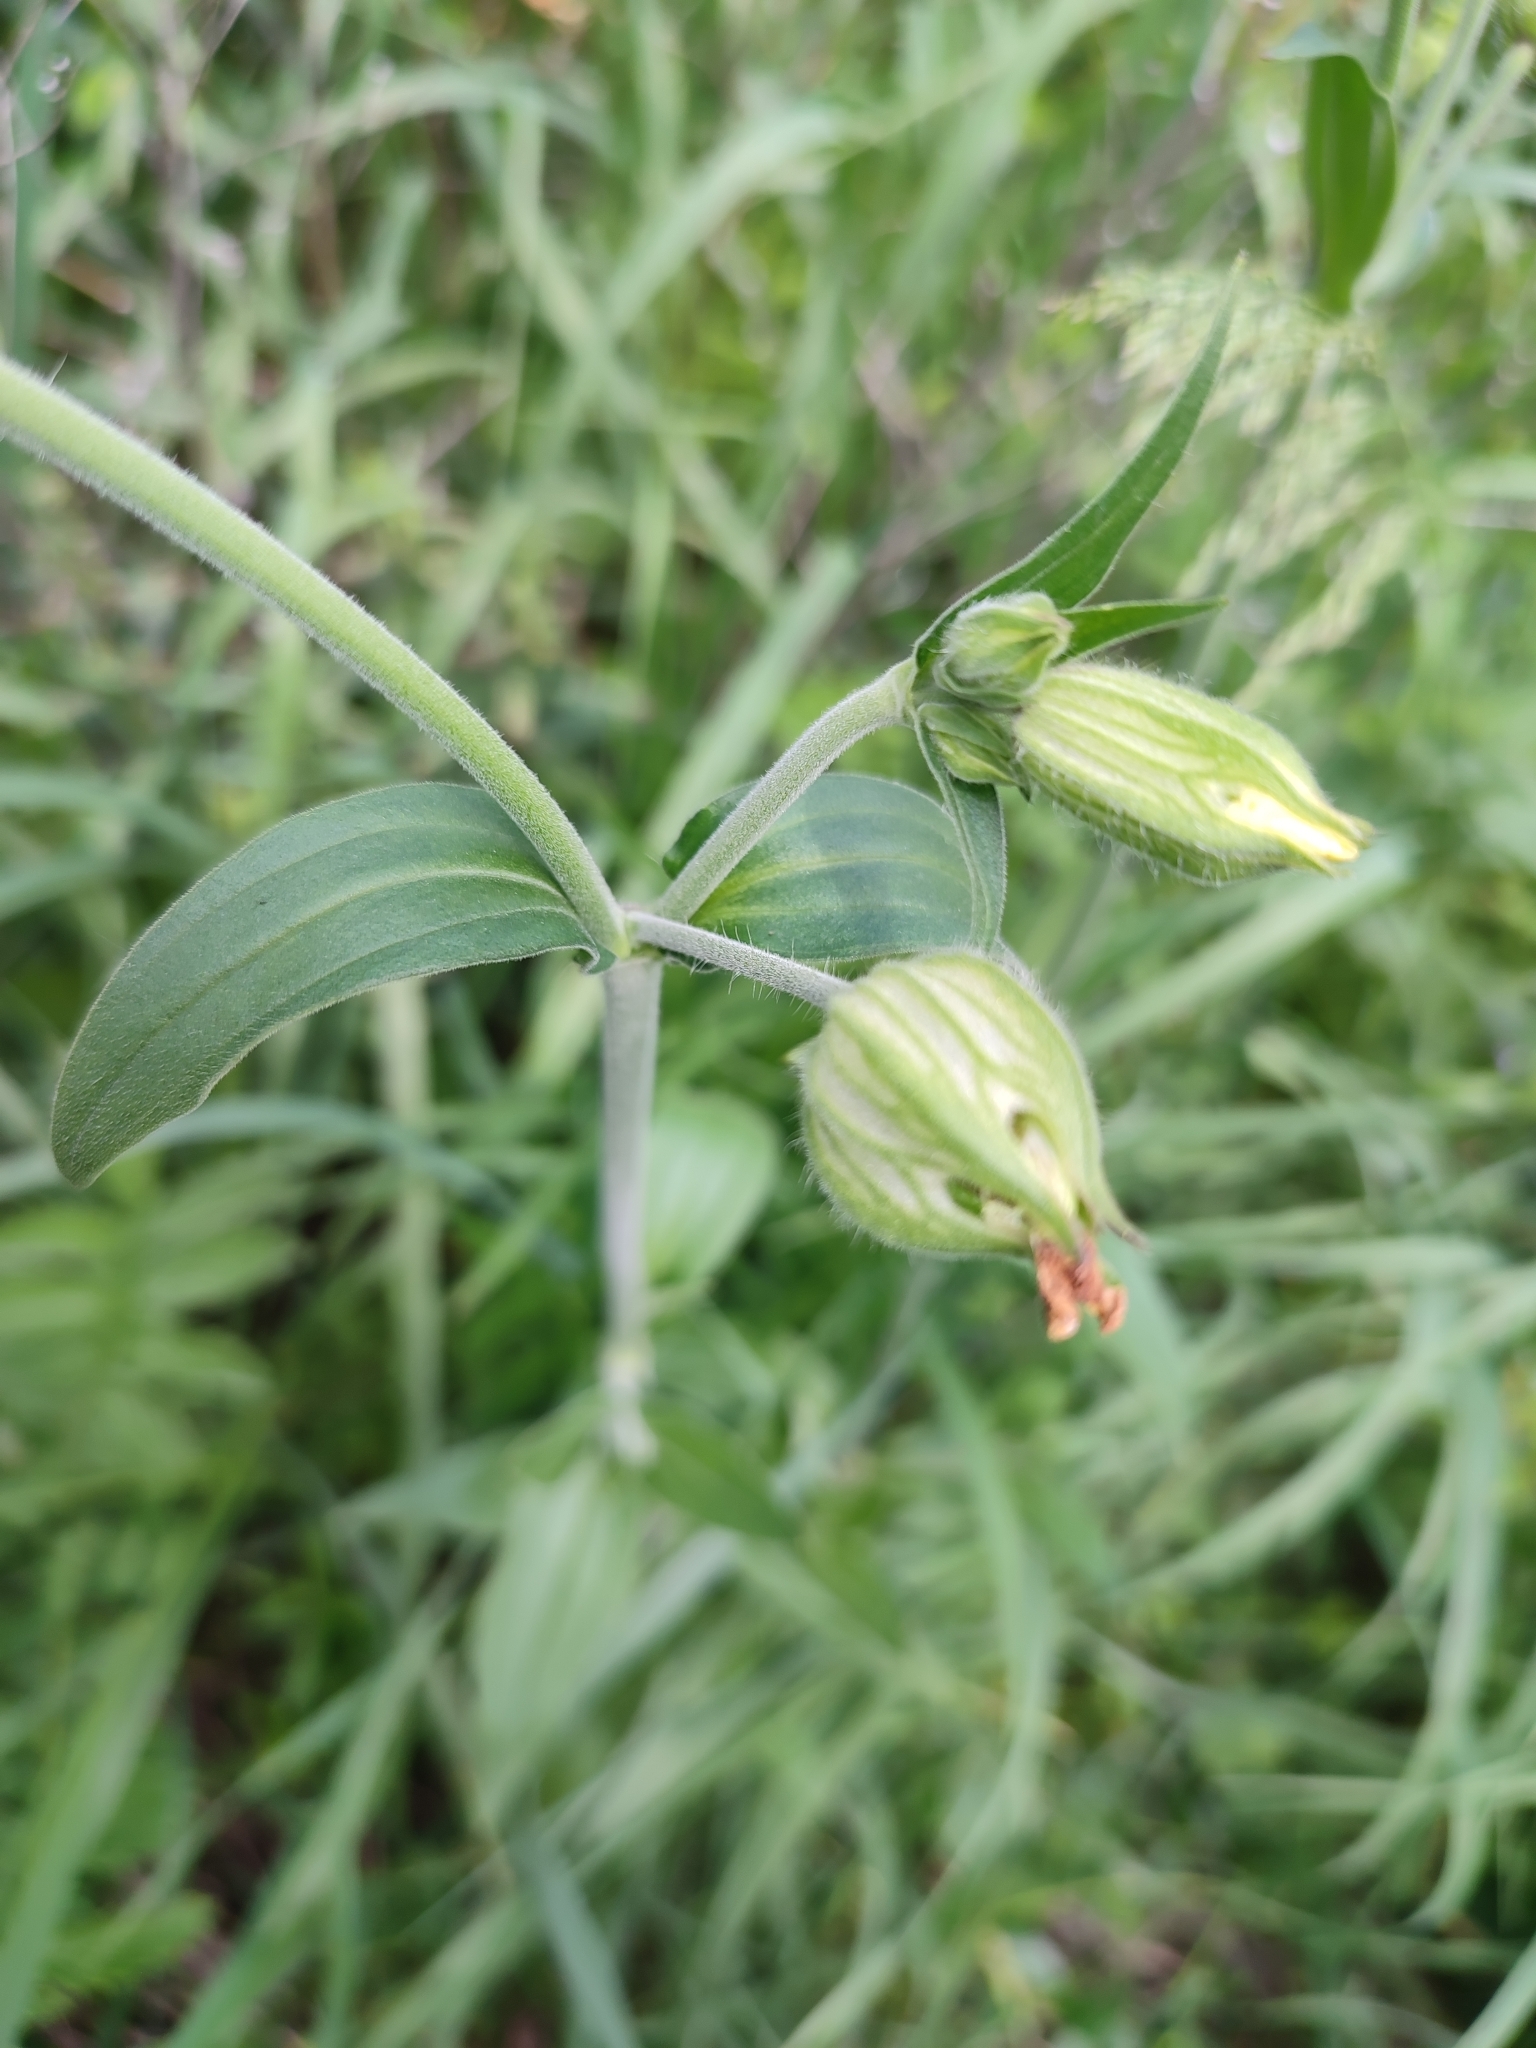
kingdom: Plantae
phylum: Tracheophyta
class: Magnoliopsida
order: Caryophyllales
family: Caryophyllaceae
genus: Silene
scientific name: Silene latifolia
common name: White campion
